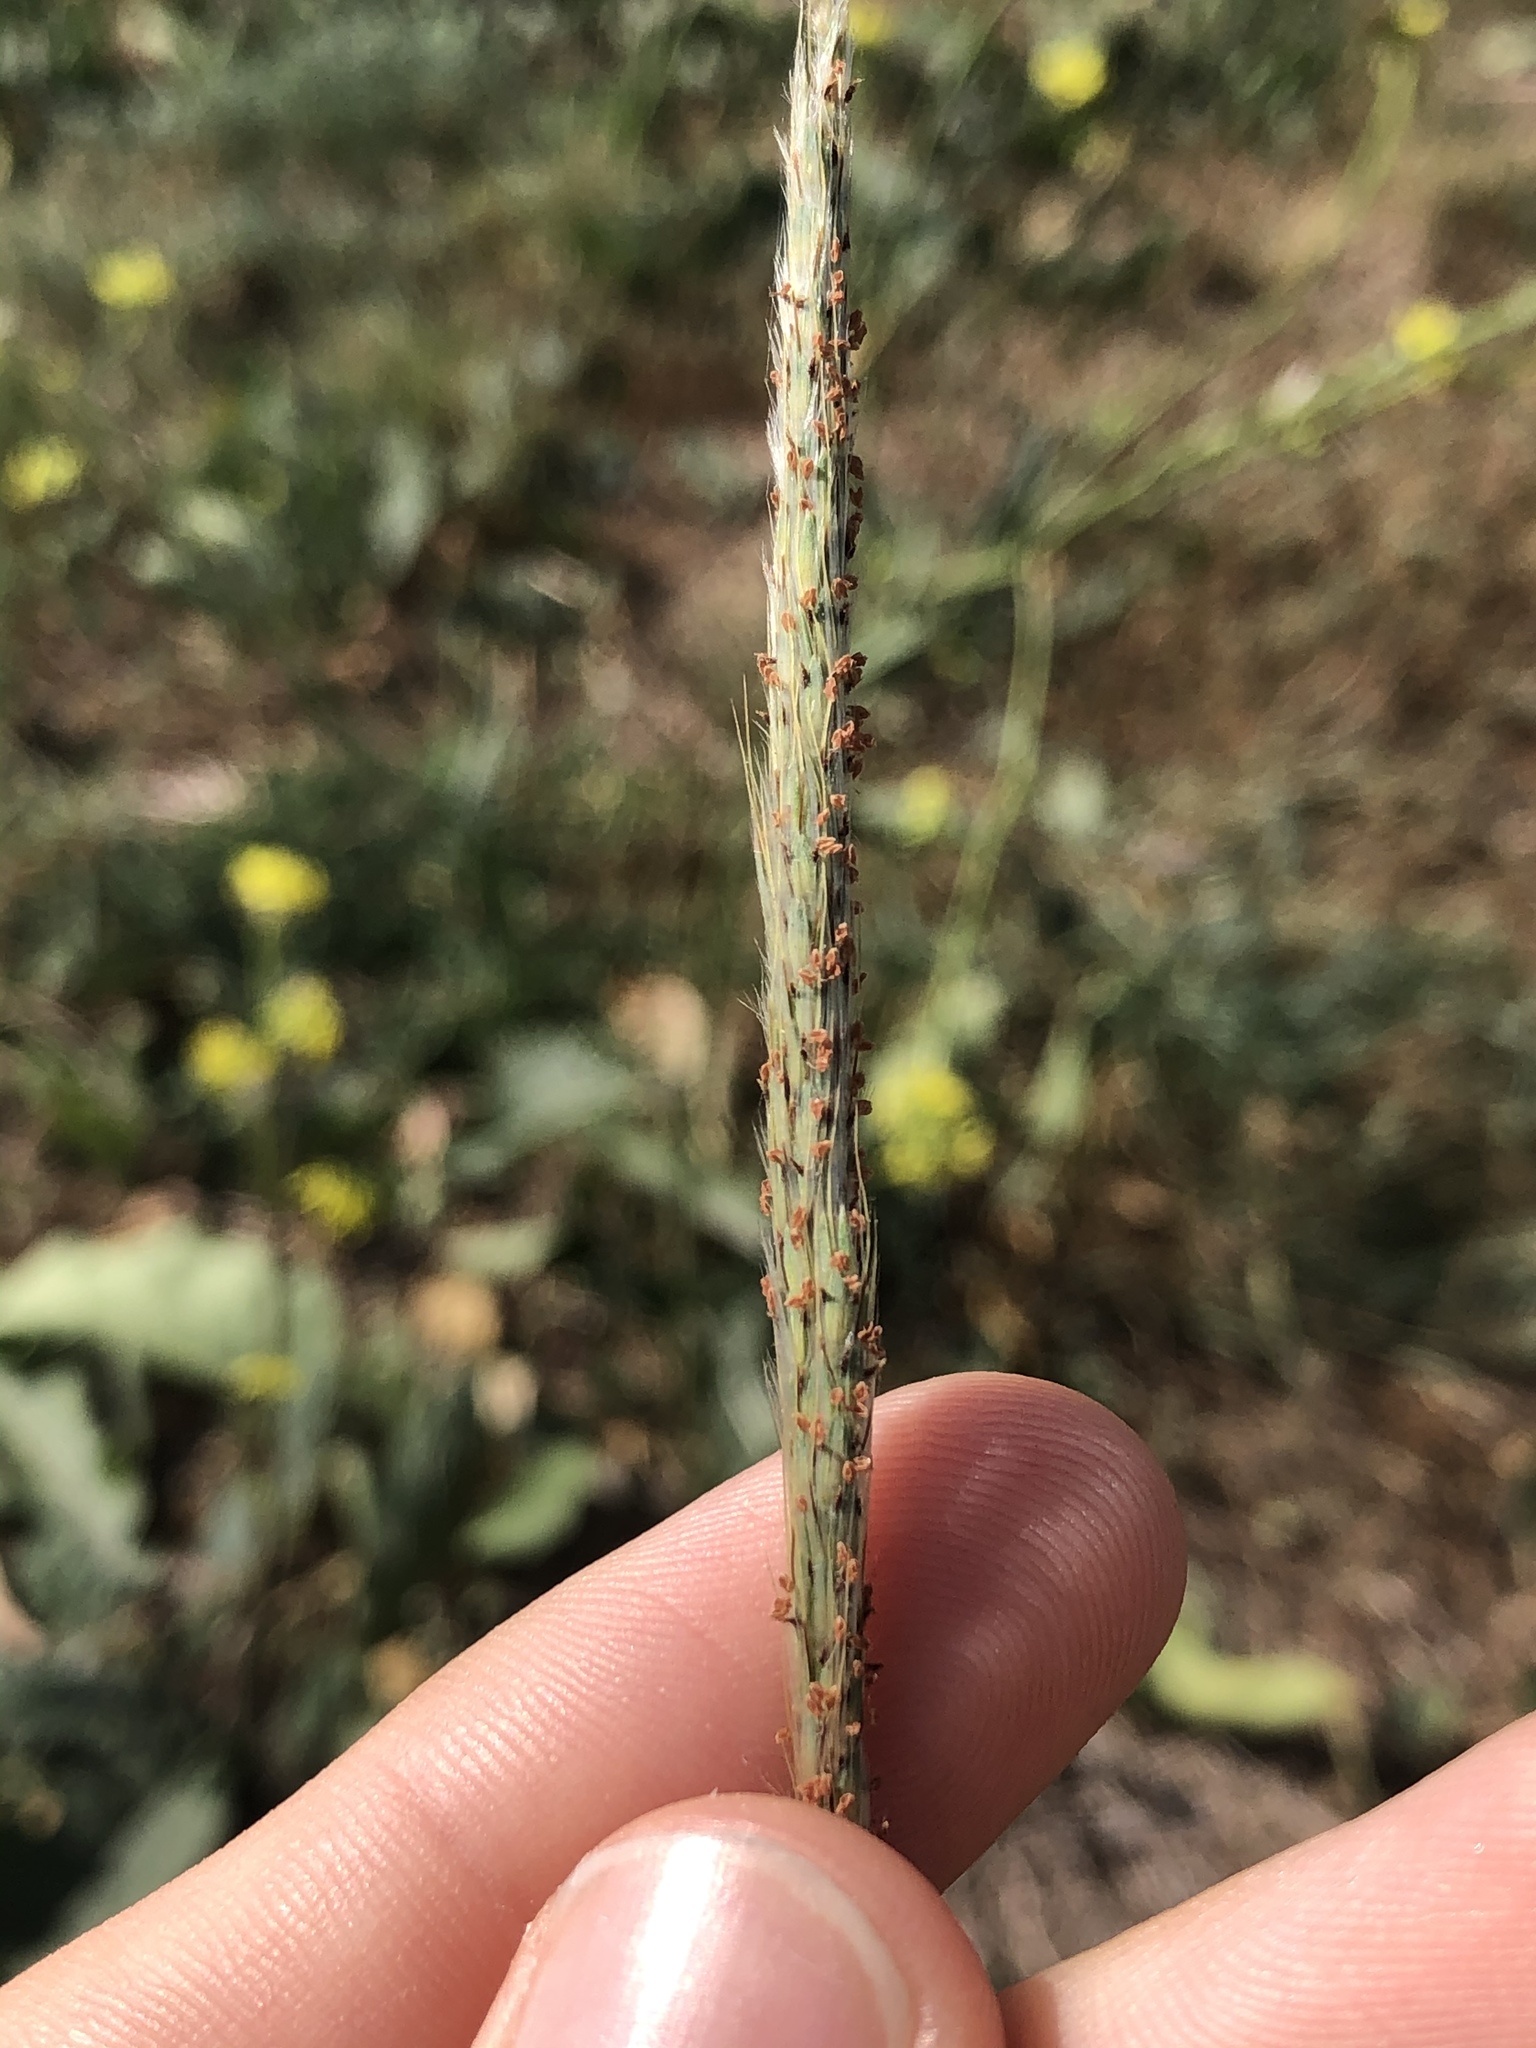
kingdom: Plantae
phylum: Tracheophyta
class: Liliopsida
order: Poales
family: Poaceae
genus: Bothriochloa
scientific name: Bothriochloa torreyana
